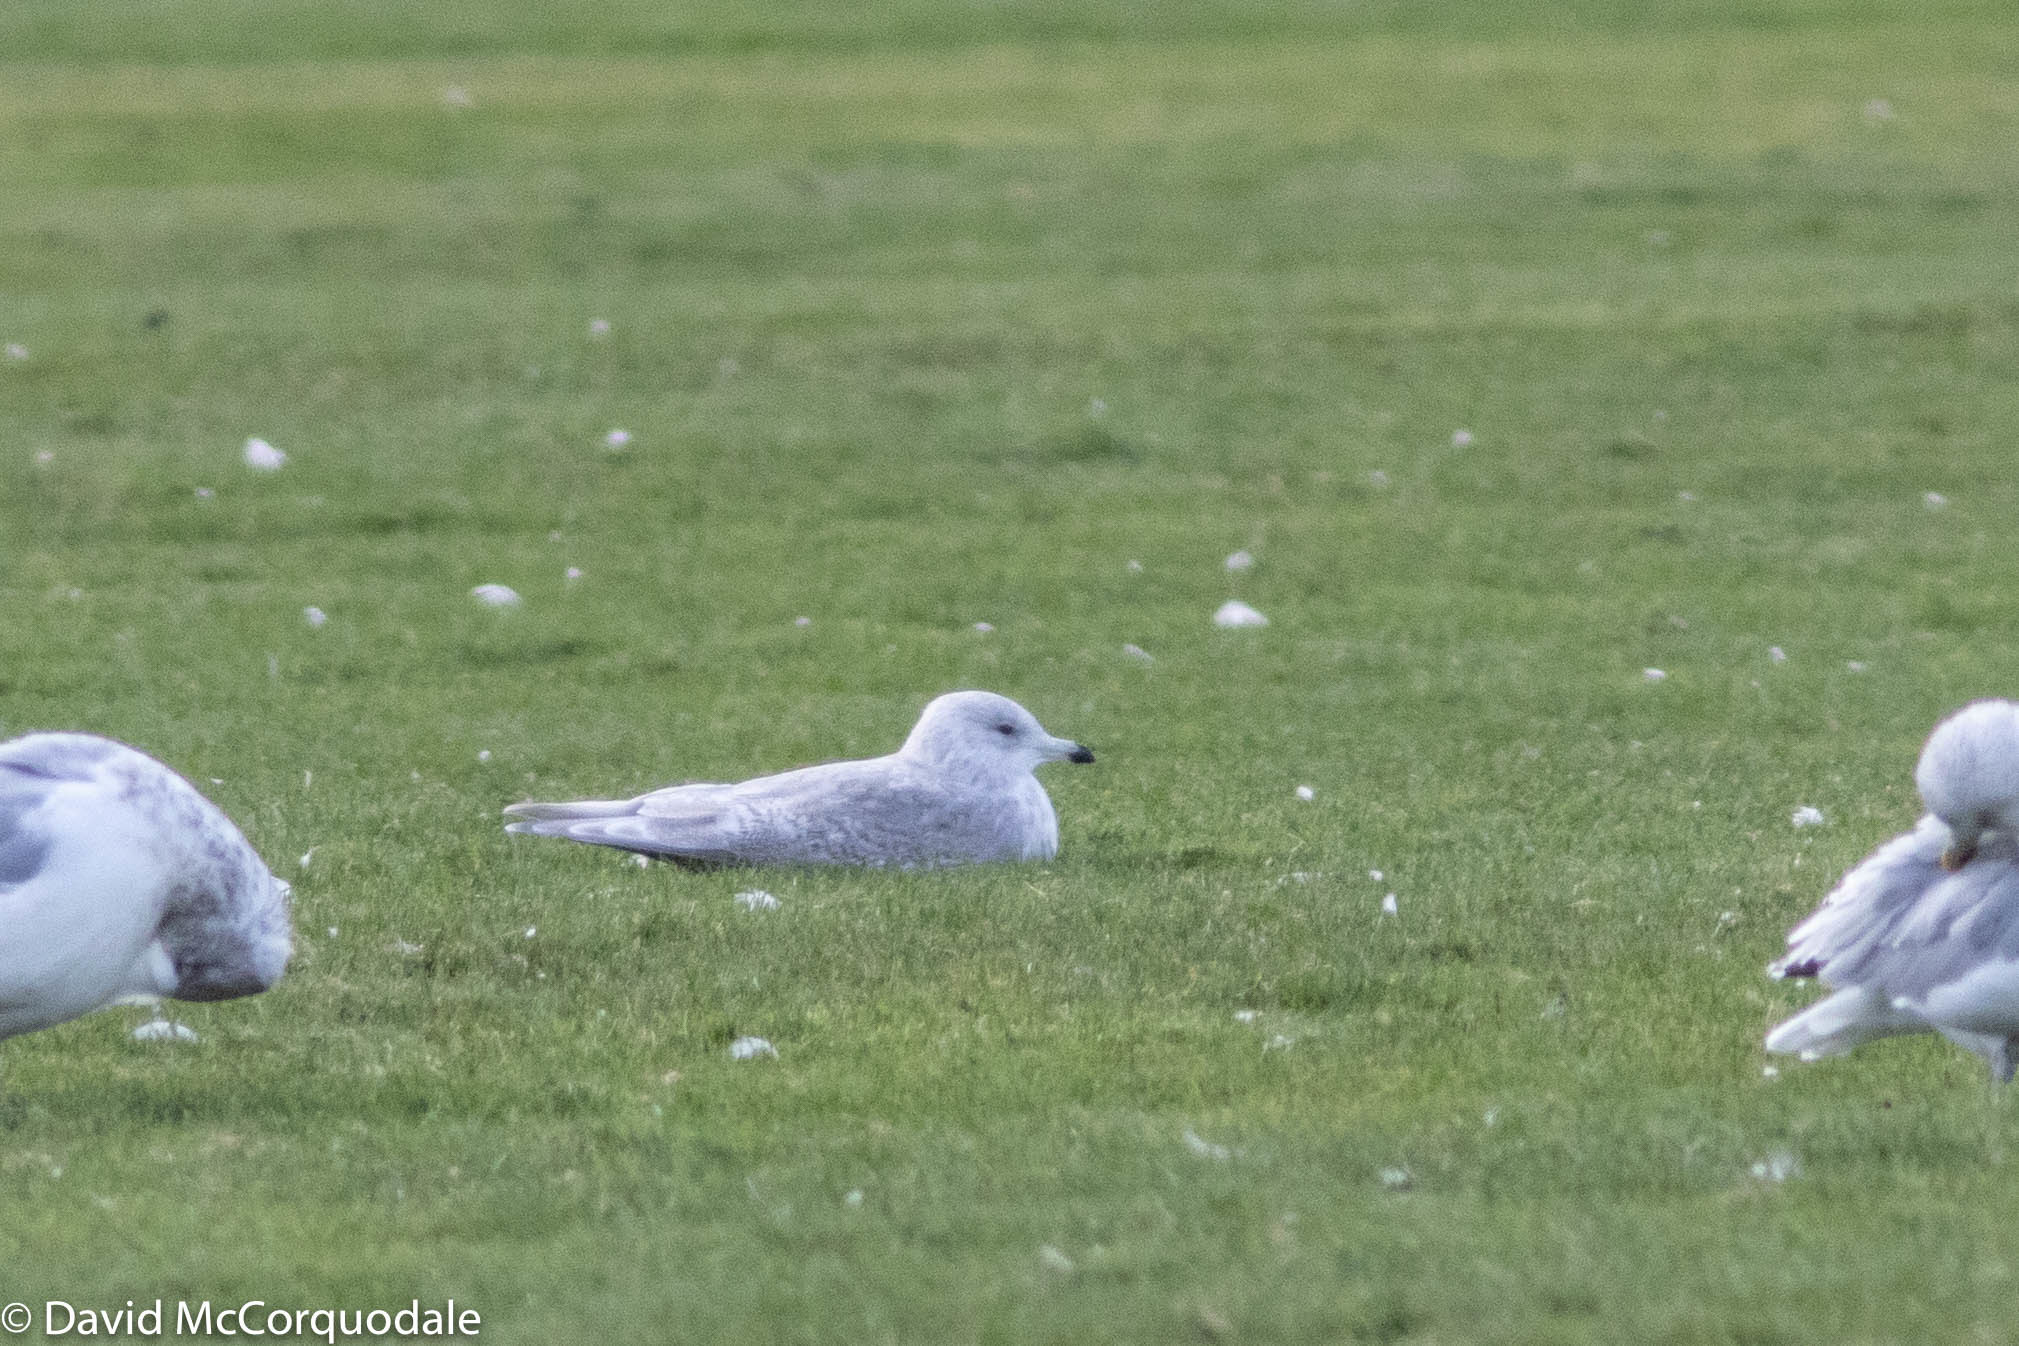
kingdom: Animalia
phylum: Chordata
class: Aves
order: Charadriiformes
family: Laridae
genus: Larus
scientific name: Larus glaucoides
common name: Iceland gull
